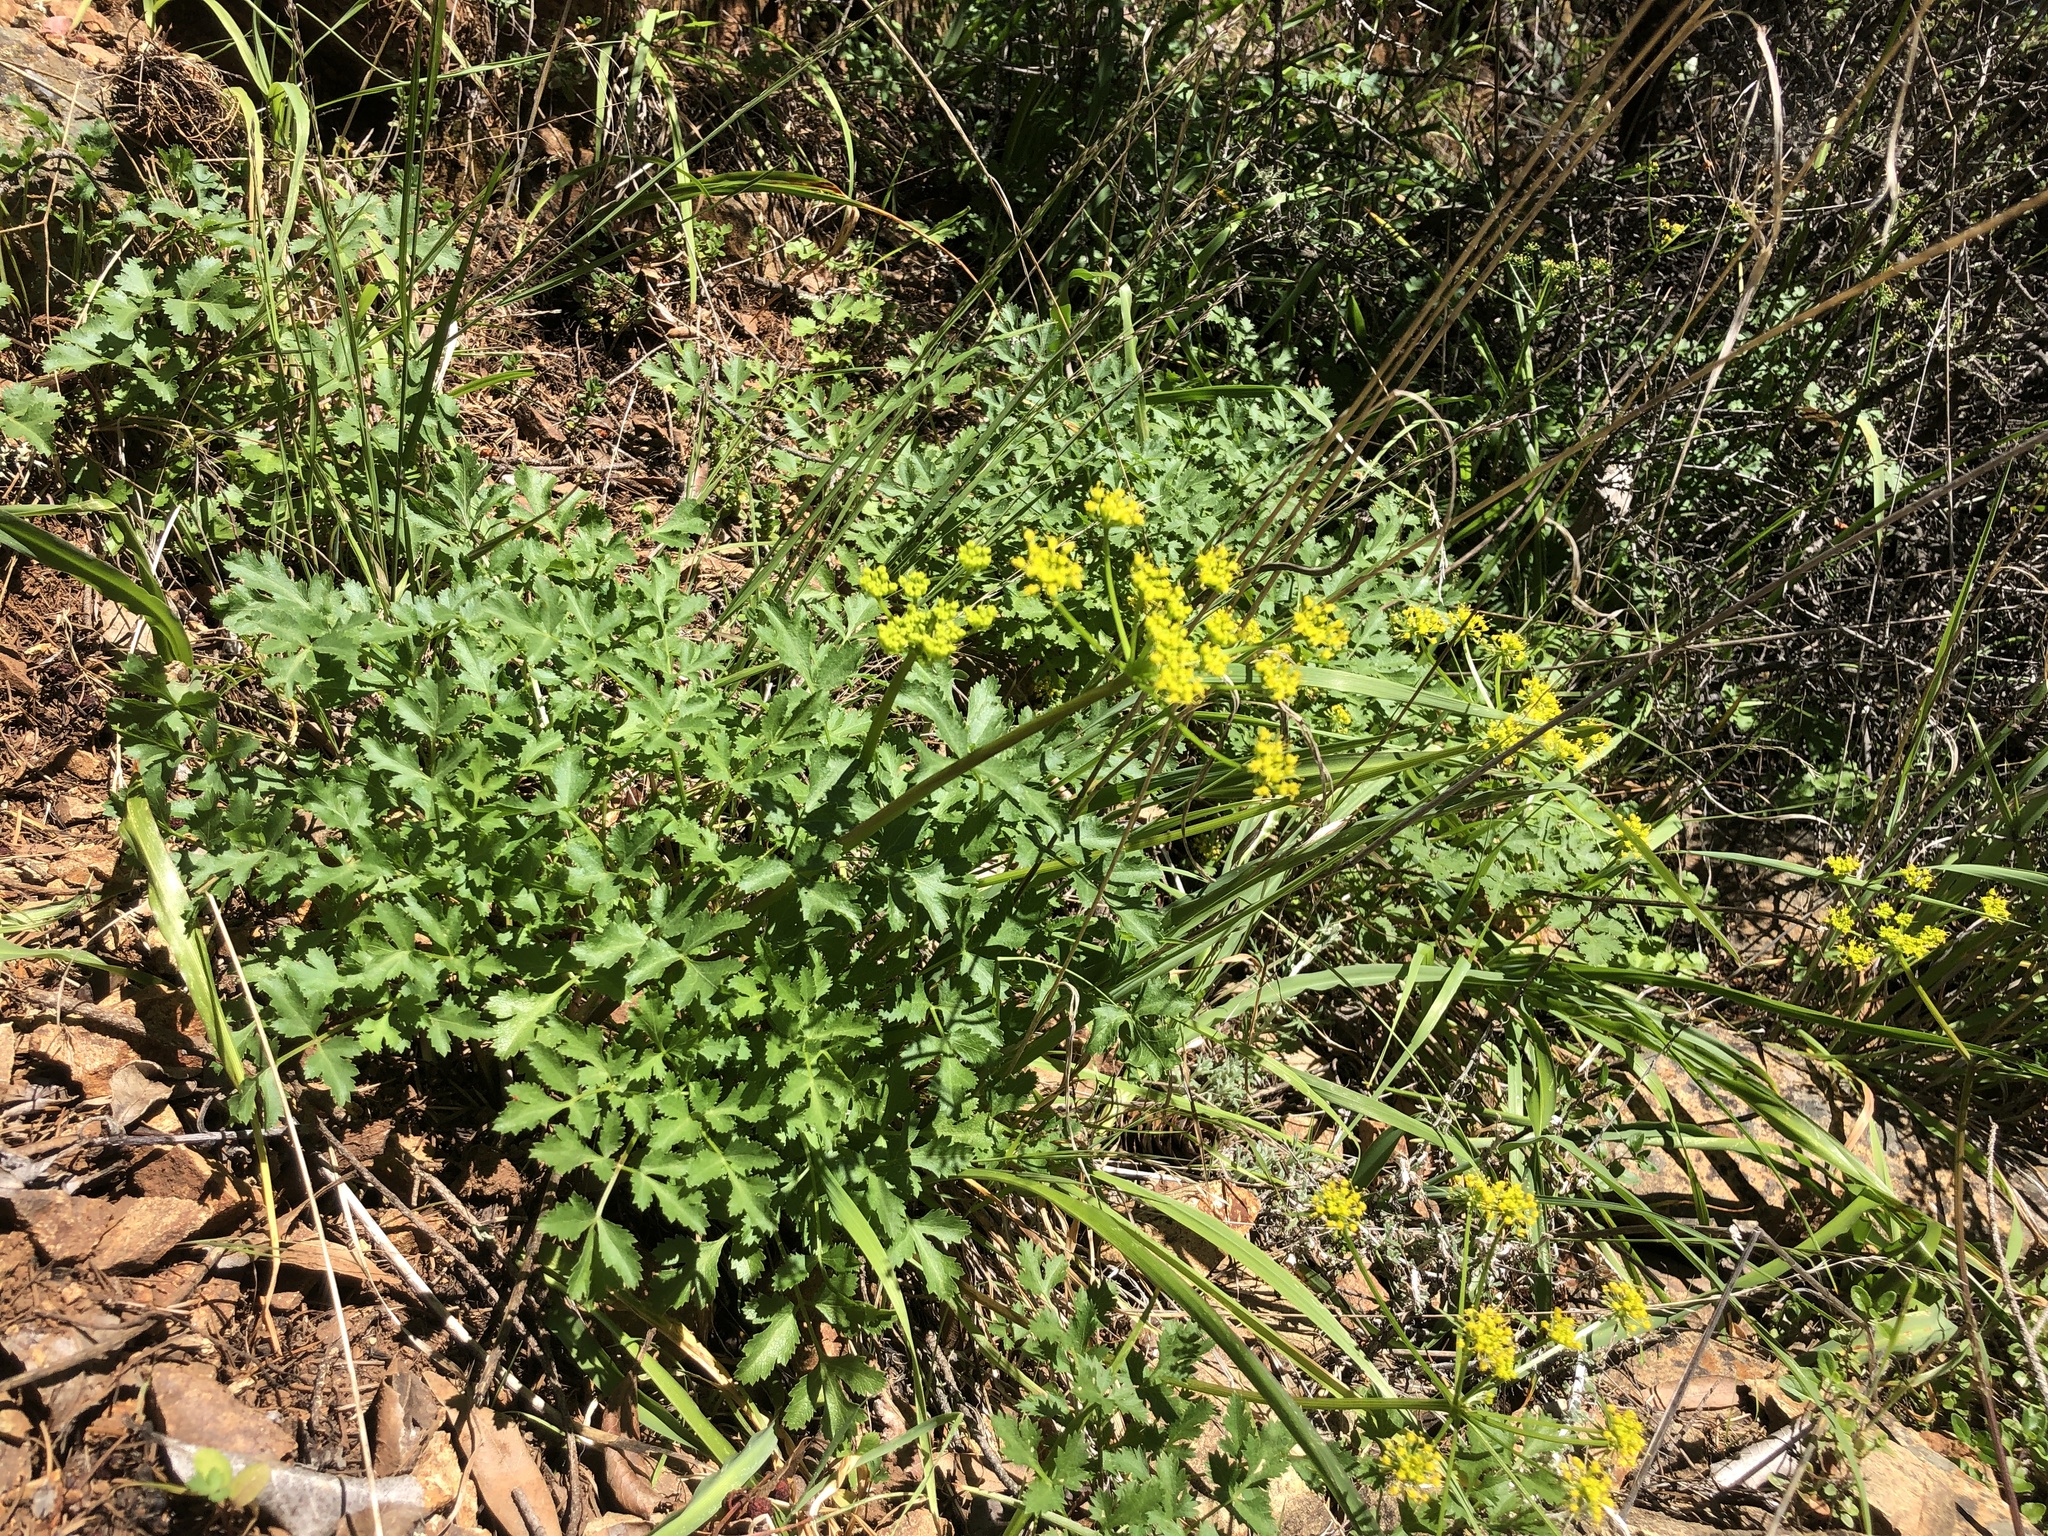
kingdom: Plantae
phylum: Tracheophyta
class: Magnoliopsida
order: Apiales
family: Apiaceae
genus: Tauschia
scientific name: Tauschia kelloggii
